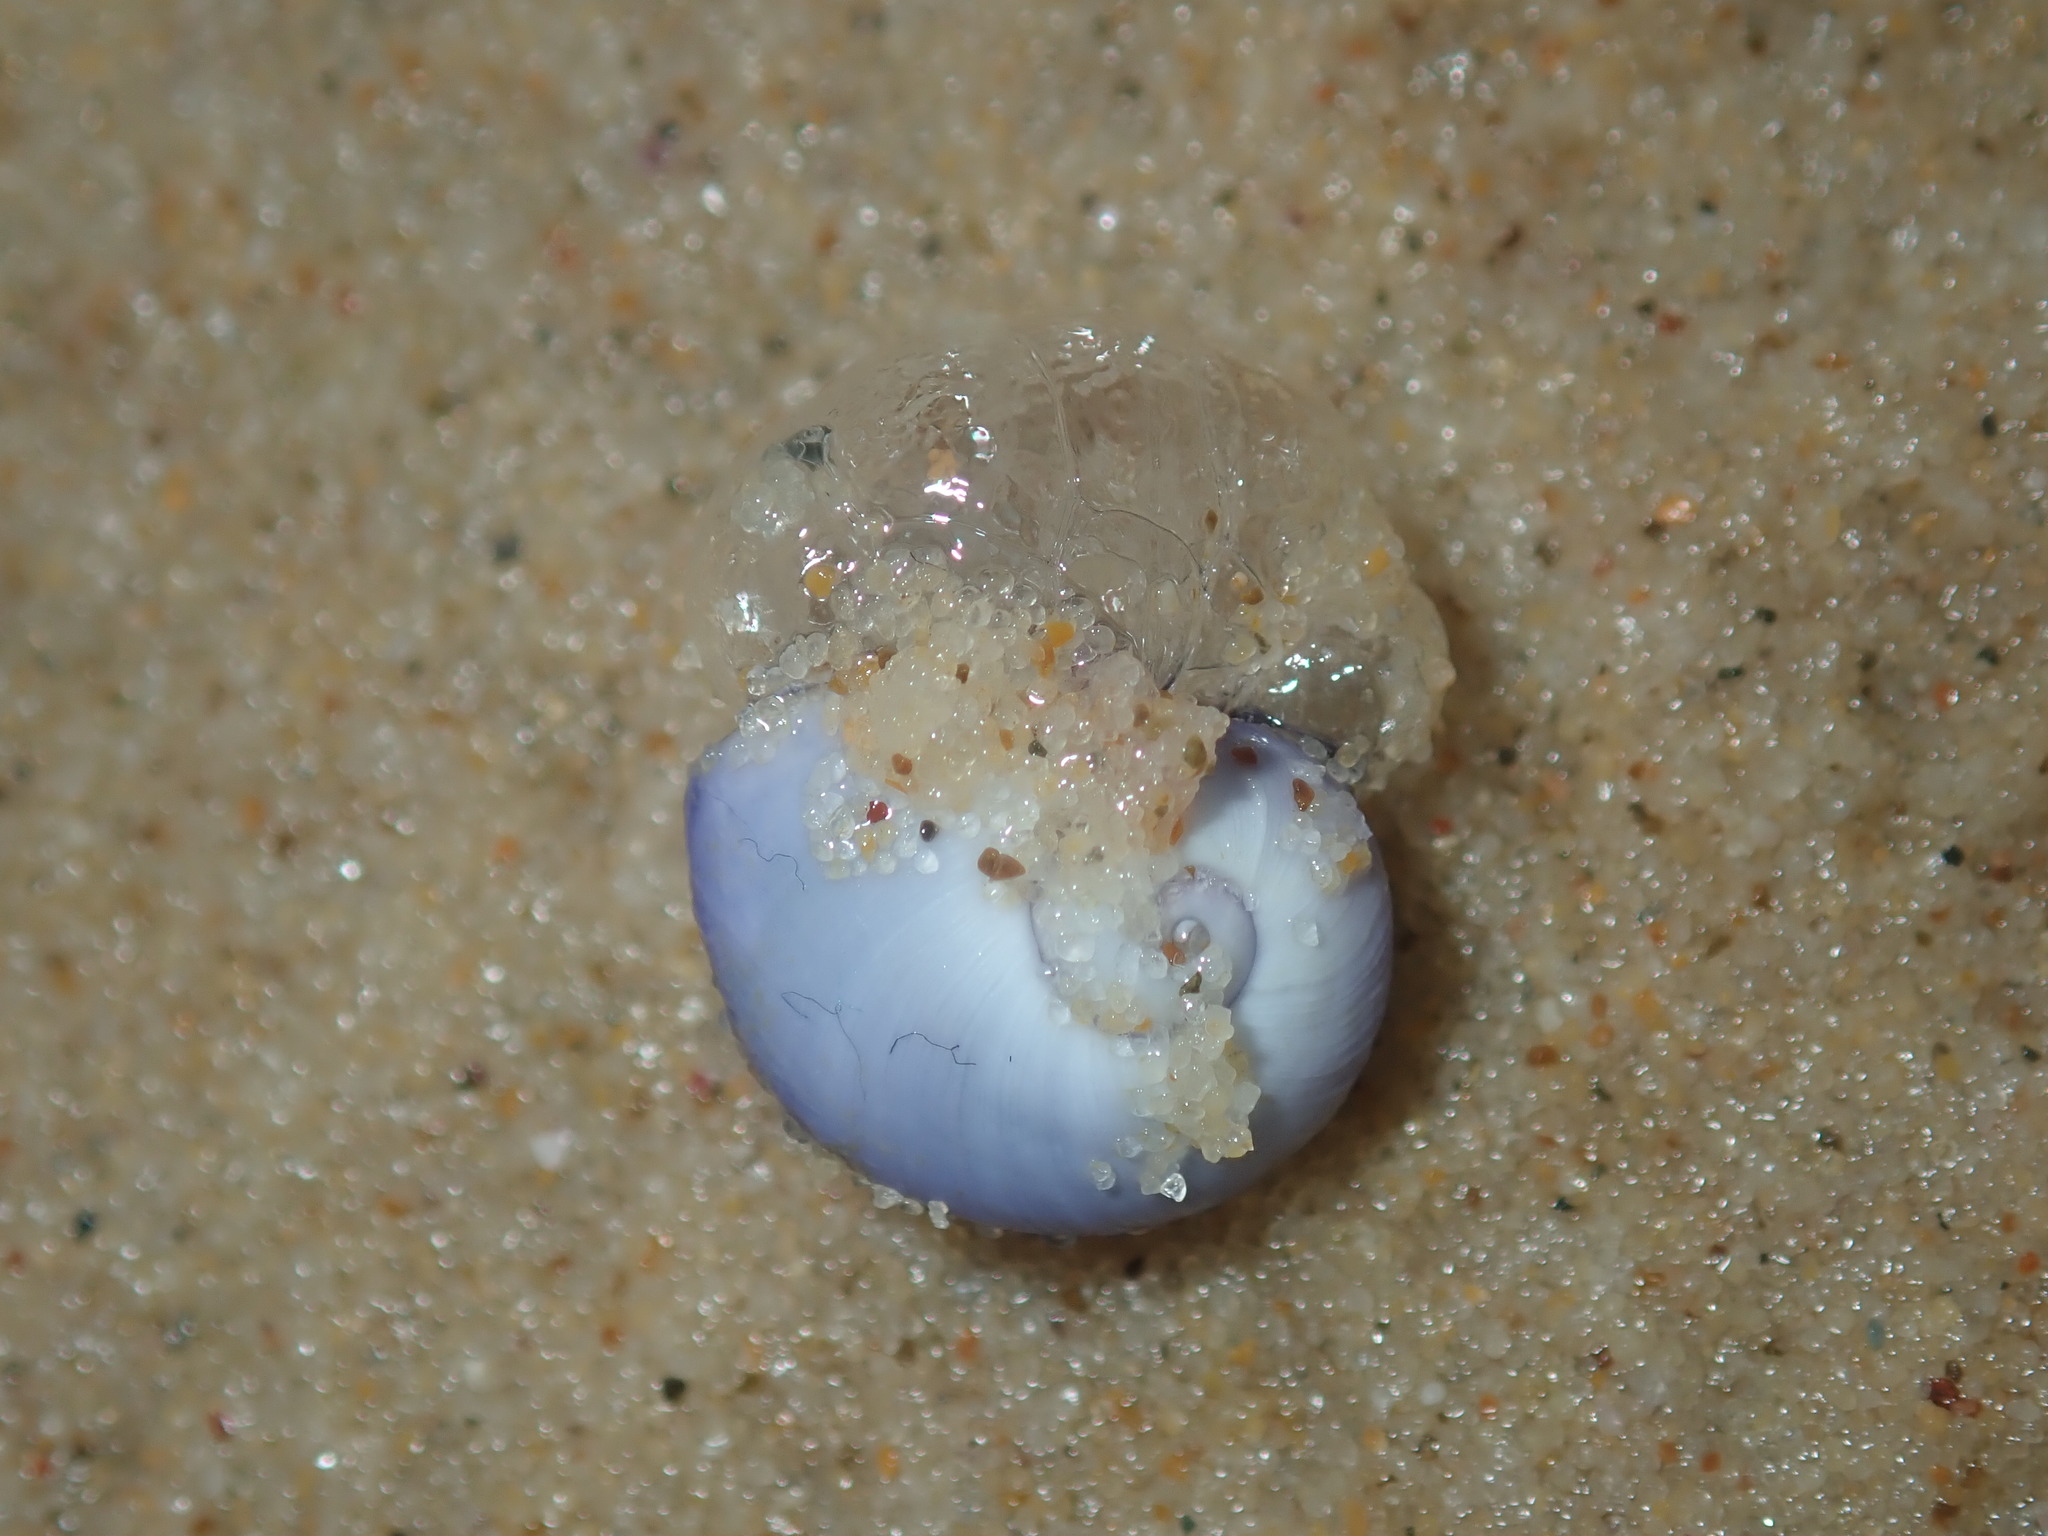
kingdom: Animalia
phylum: Mollusca
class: Gastropoda
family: Epitoniidae
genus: Janthina
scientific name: Janthina janthina
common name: Common janthina
